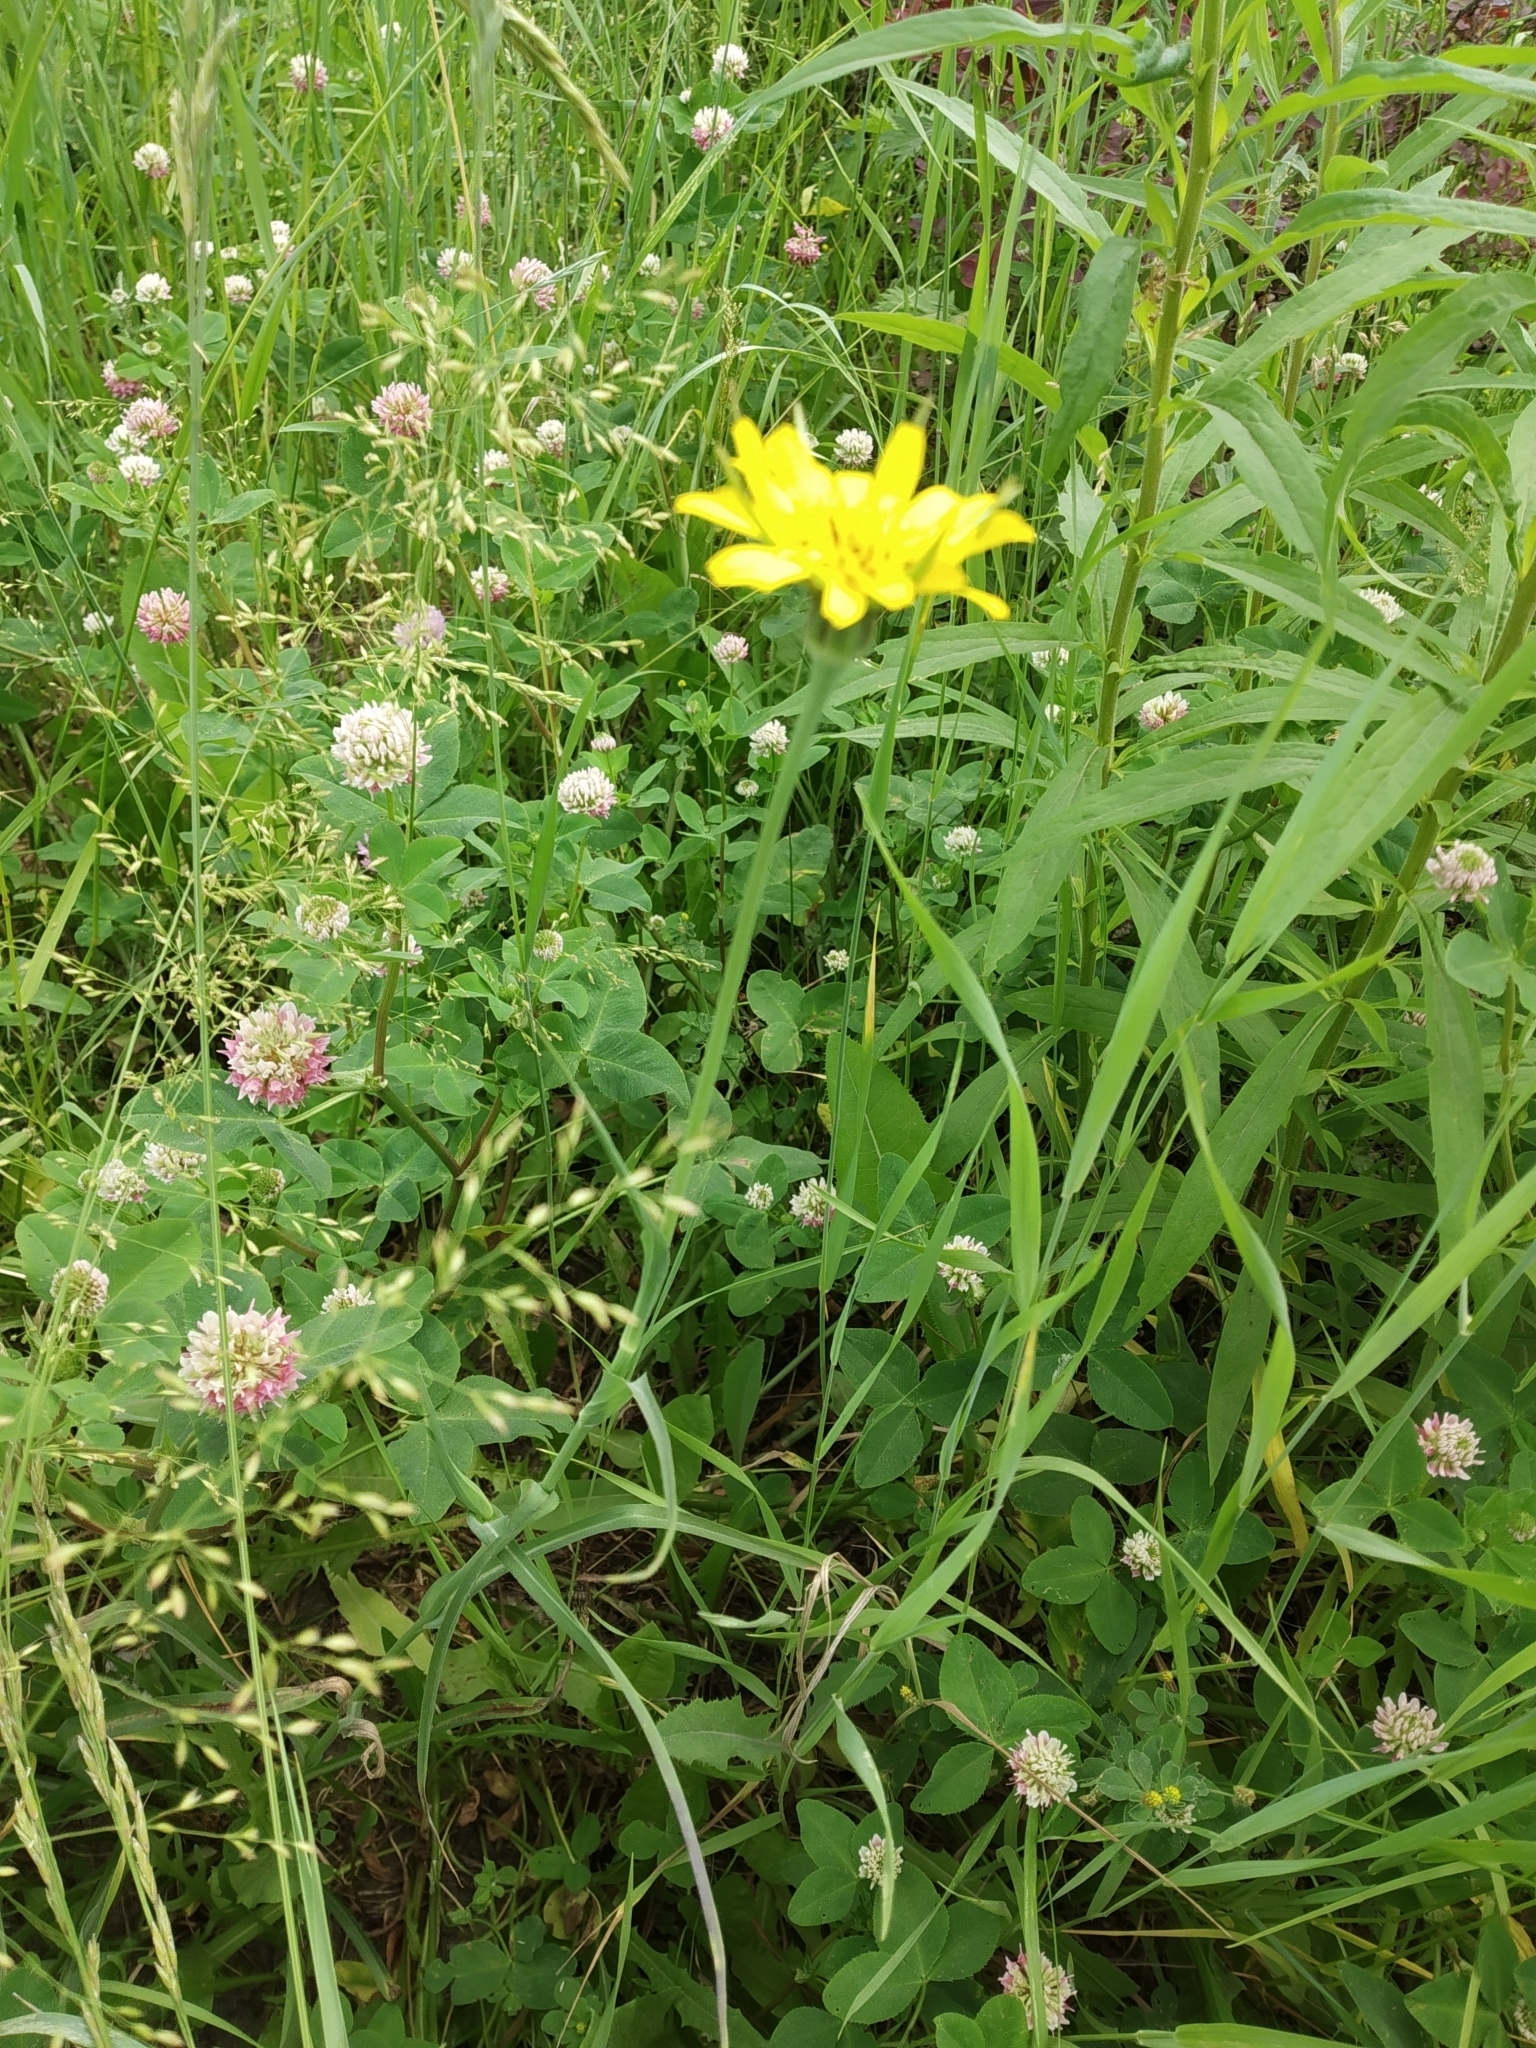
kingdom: Plantae
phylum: Tracheophyta
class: Magnoliopsida
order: Asterales
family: Asteraceae
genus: Tragopogon
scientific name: Tragopogon orientalis
